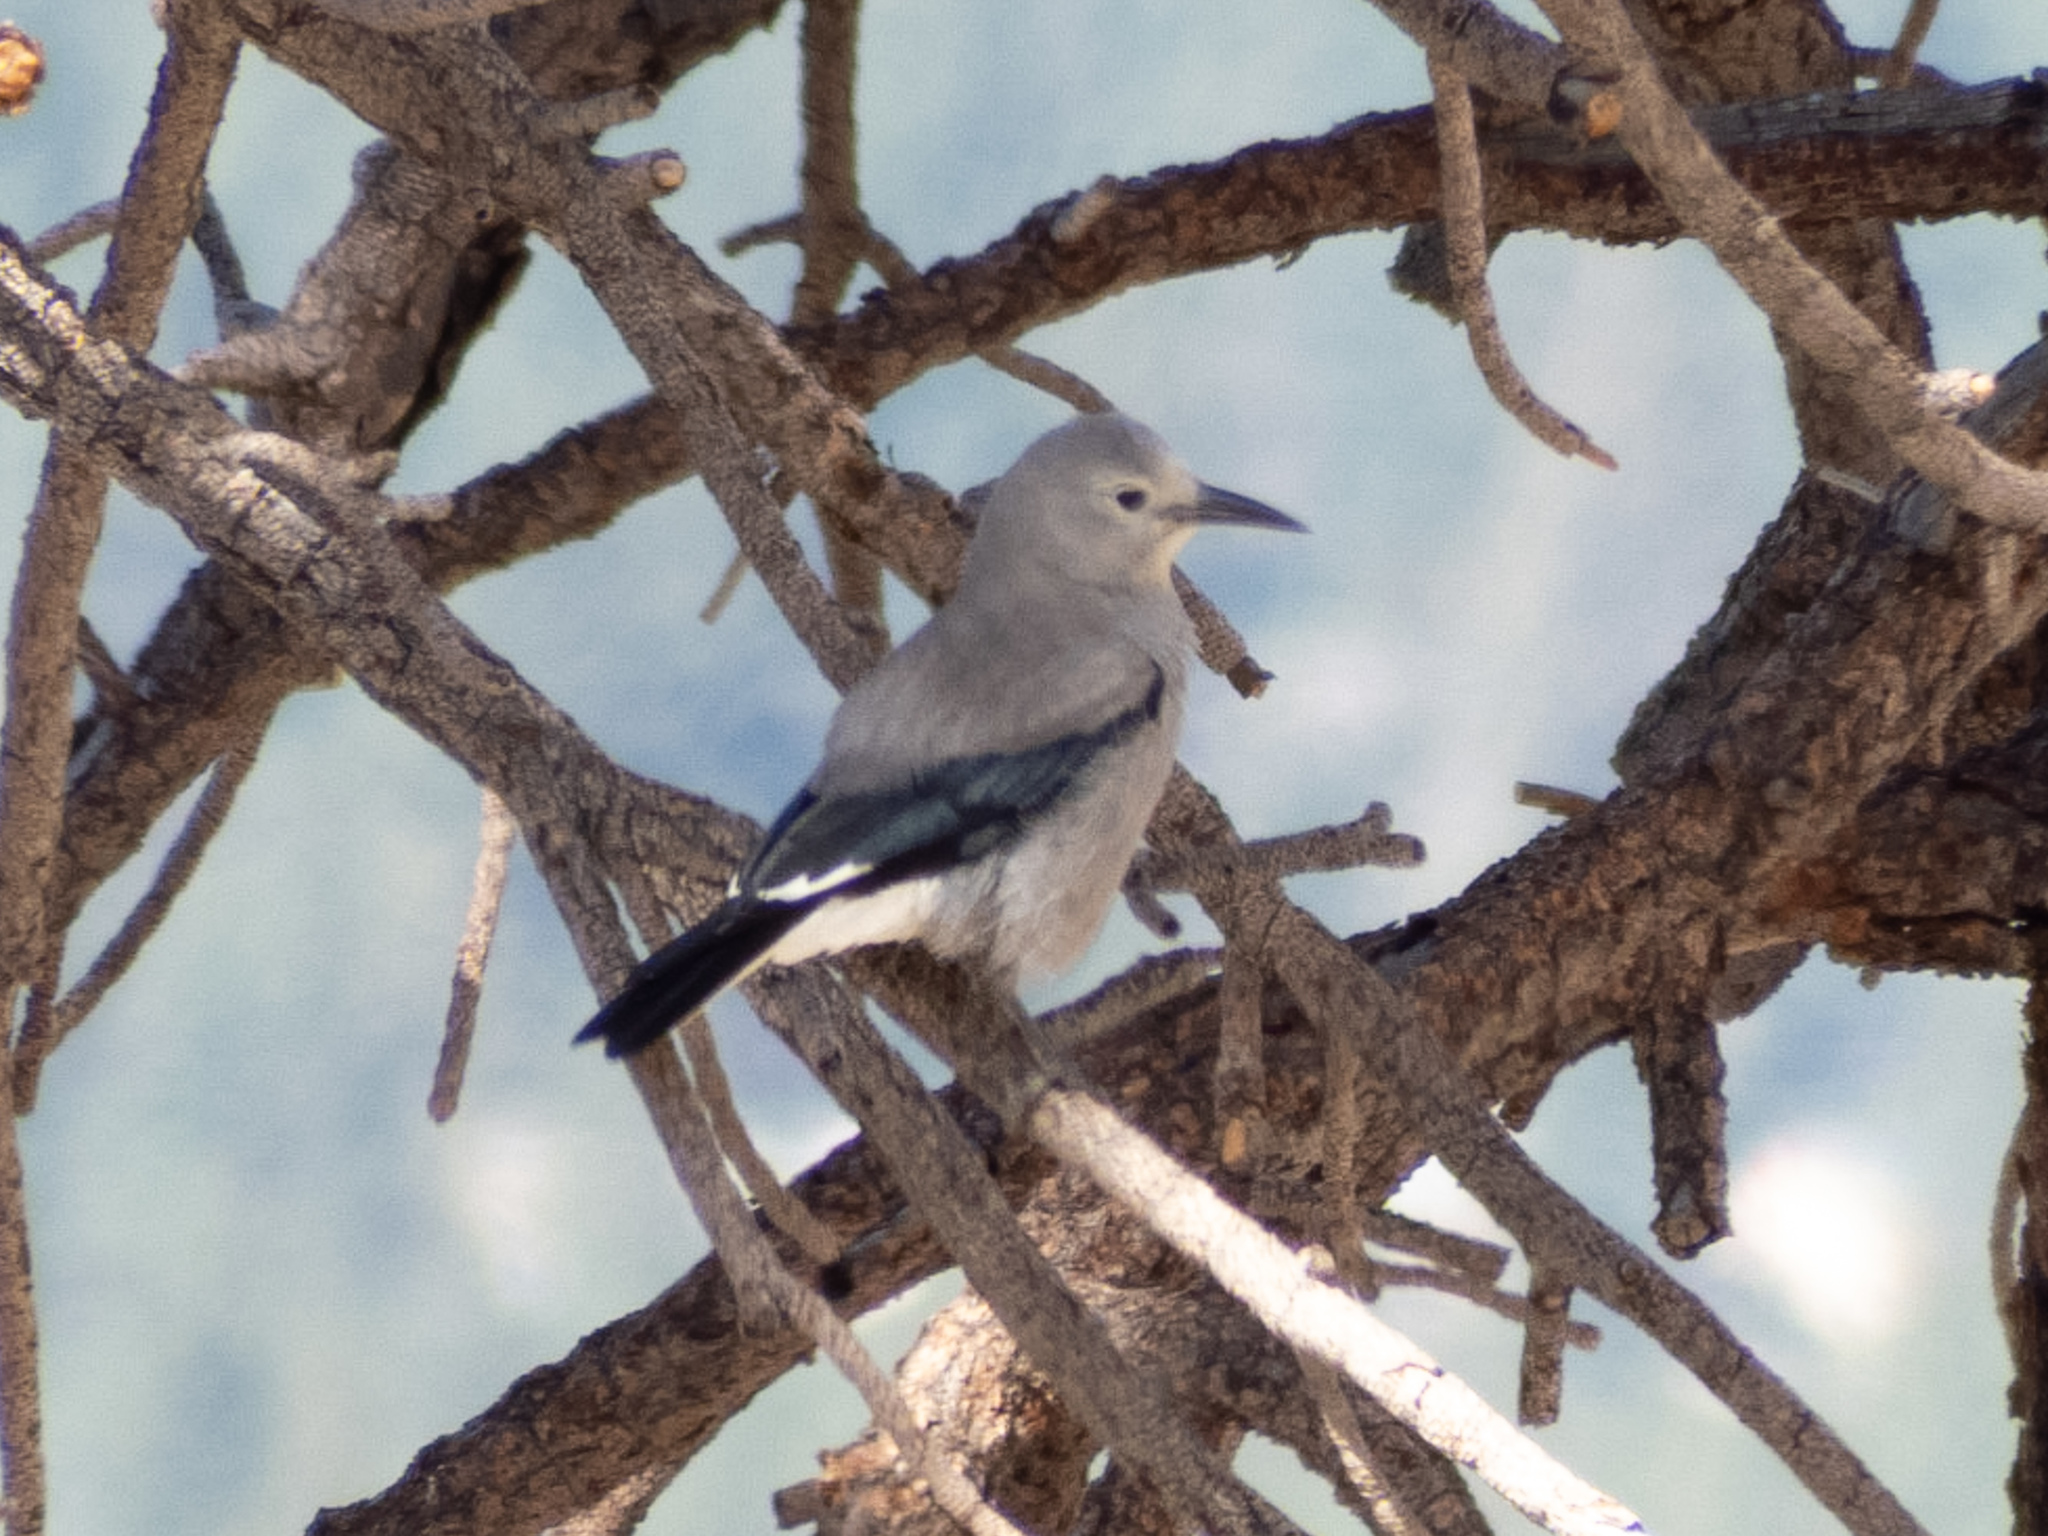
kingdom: Animalia
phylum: Chordata
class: Aves
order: Passeriformes
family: Corvidae
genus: Nucifraga
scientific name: Nucifraga columbiana
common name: Clark's nutcracker
